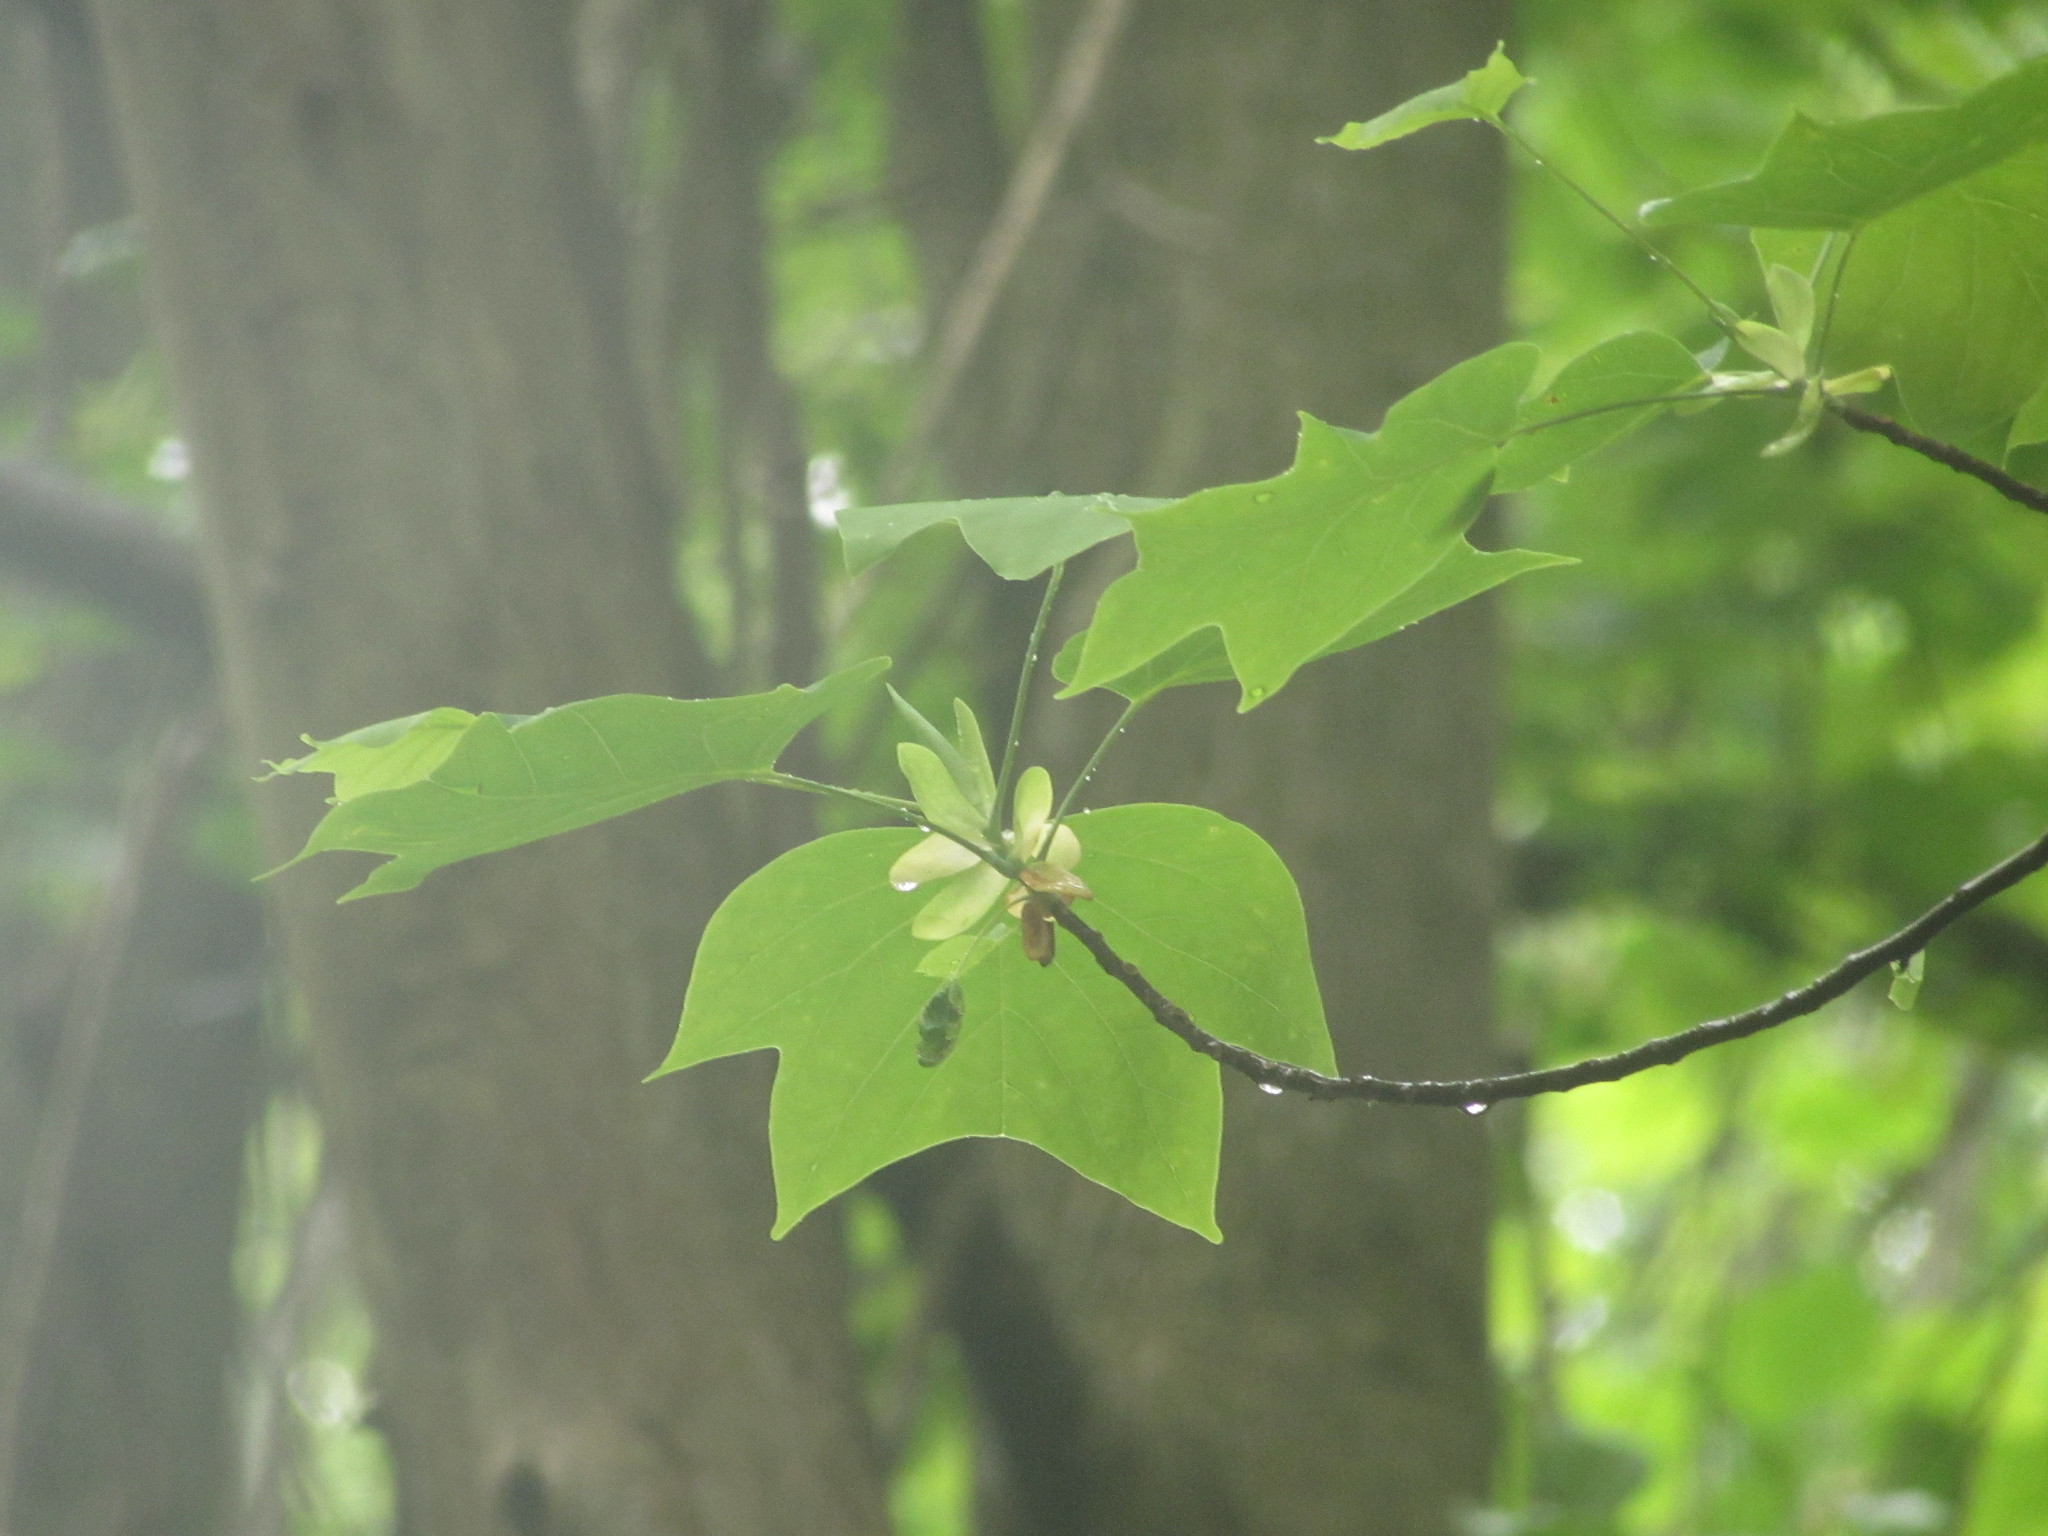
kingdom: Plantae
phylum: Tracheophyta
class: Magnoliopsida
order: Magnoliales
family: Magnoliaceae
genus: Liriodendron
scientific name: Liriodendron tulipifera
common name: Tulip tree
